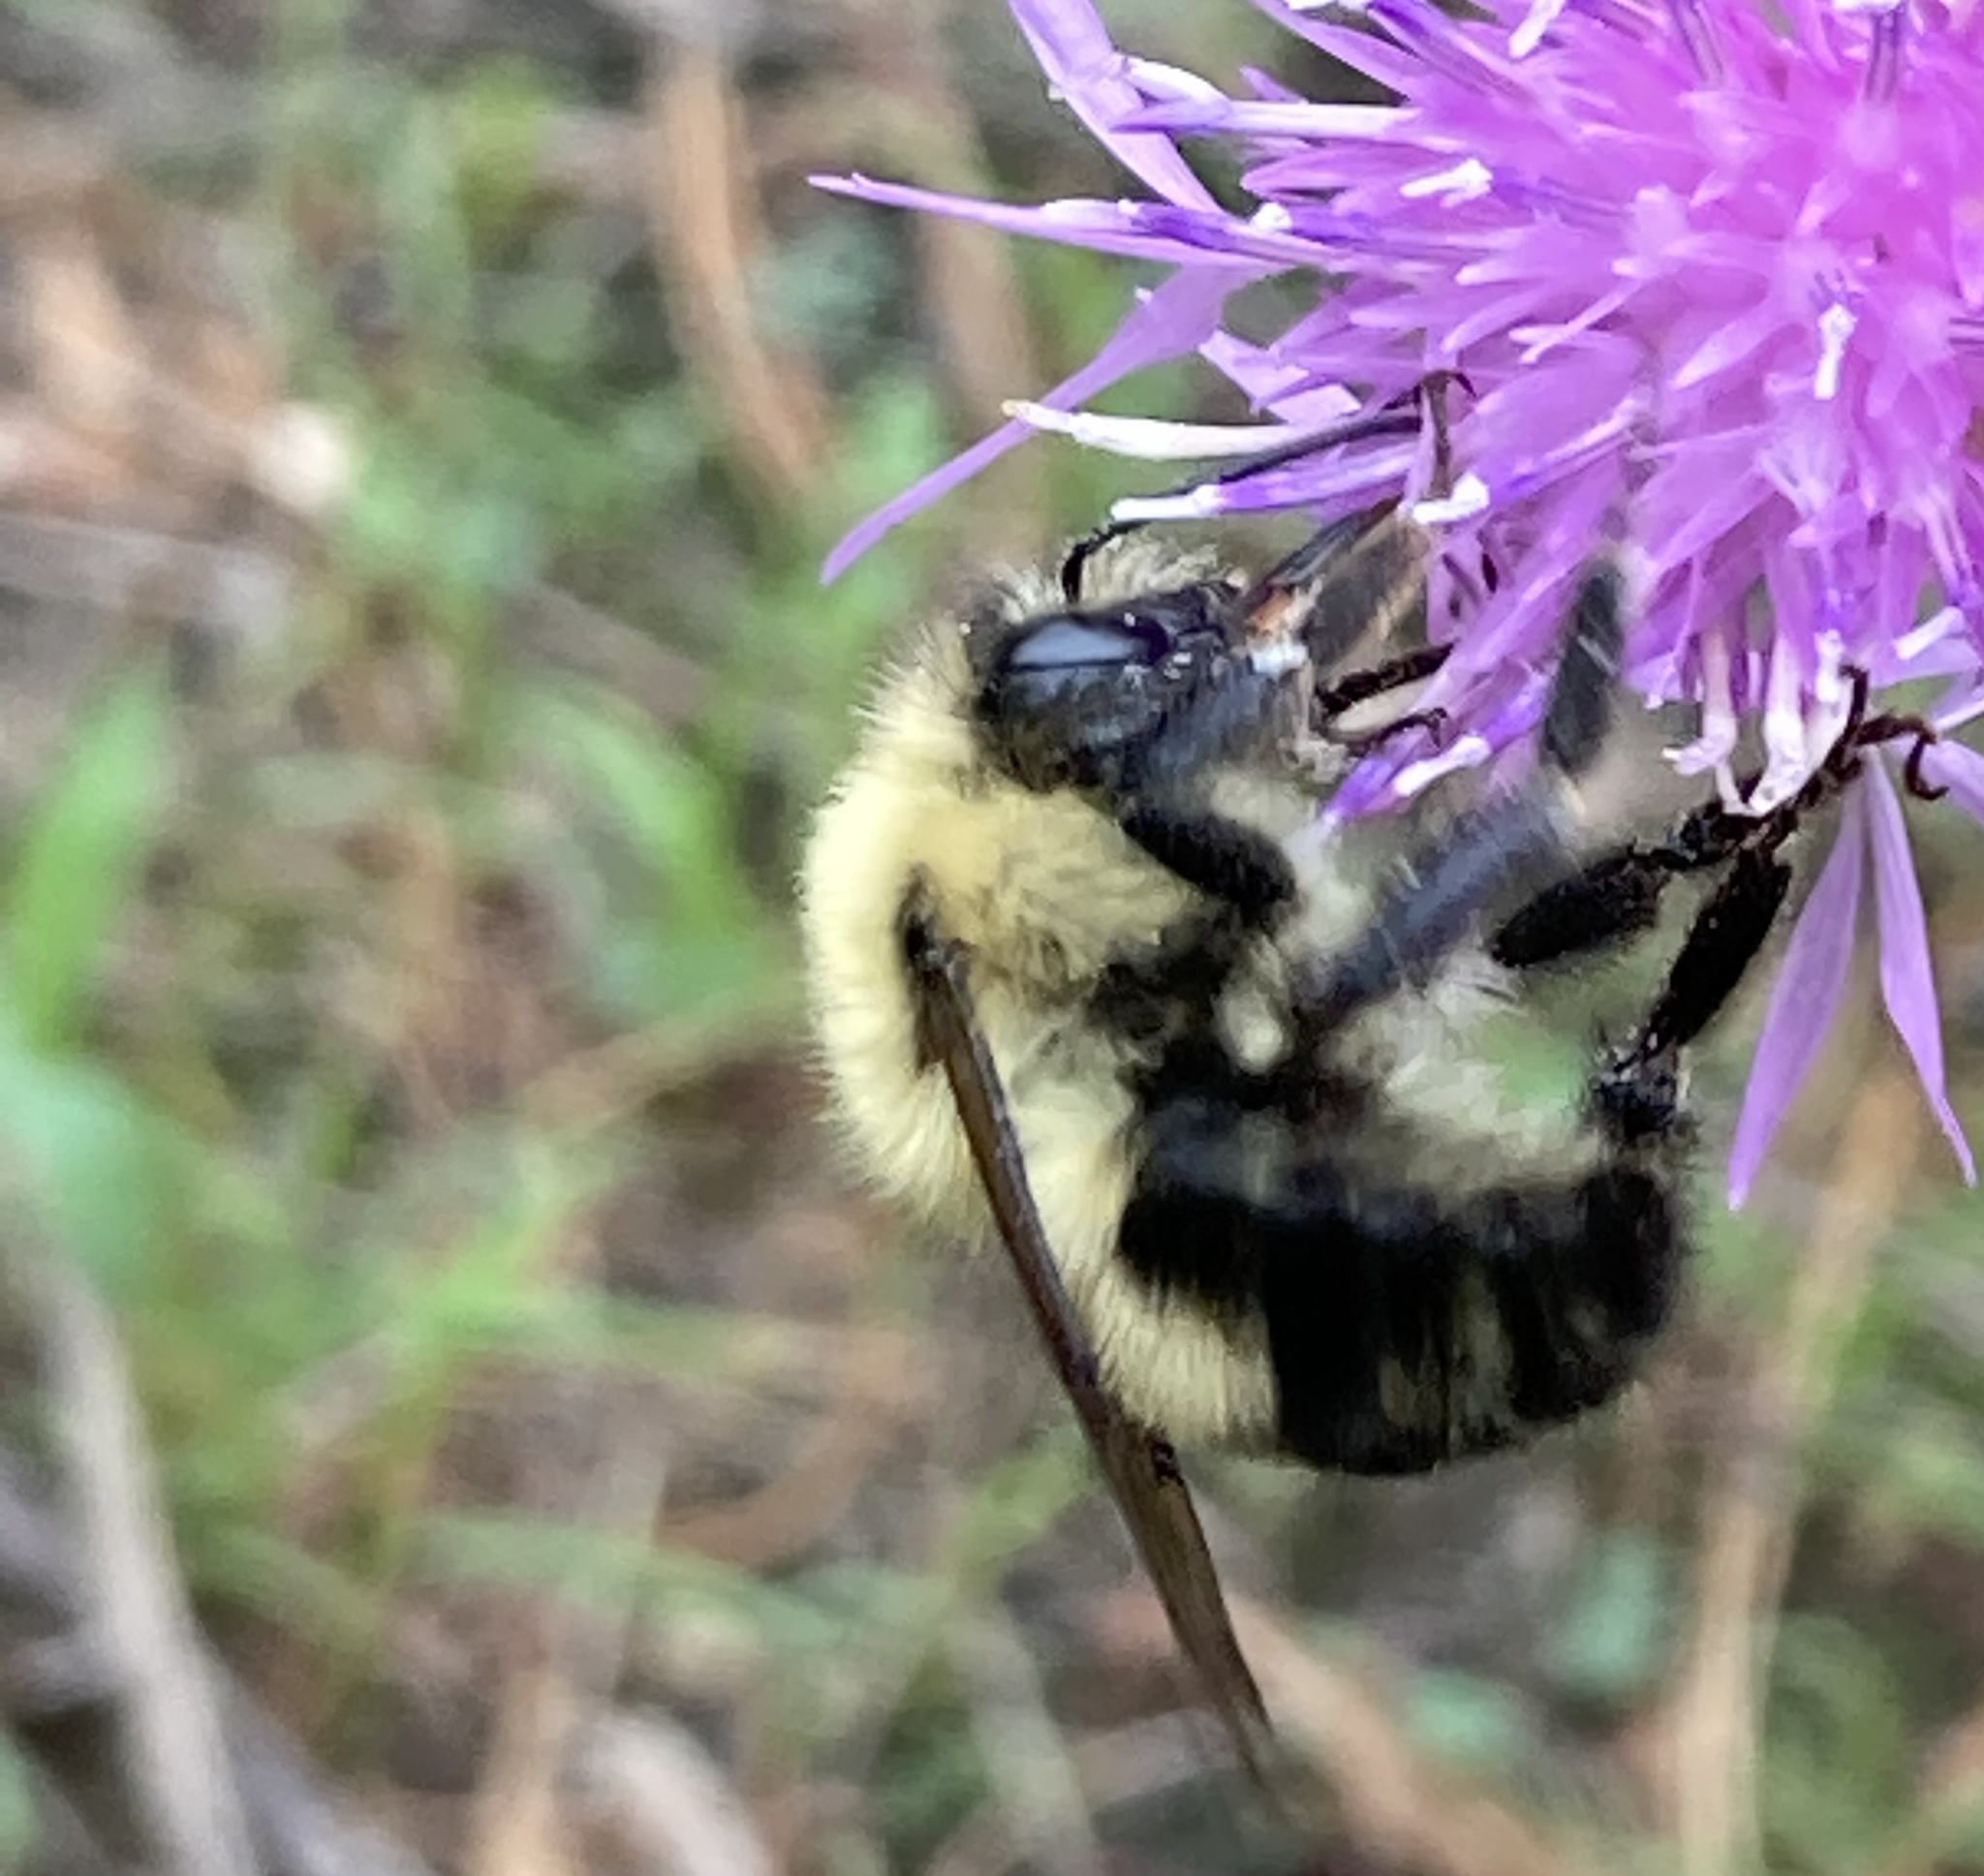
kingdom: Animalia
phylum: Arthropoda
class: Insecta
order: Hymenoptera
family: Apidae
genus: Bombus
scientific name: Bombus bimaculatus
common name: Two-spotted bumble bee
